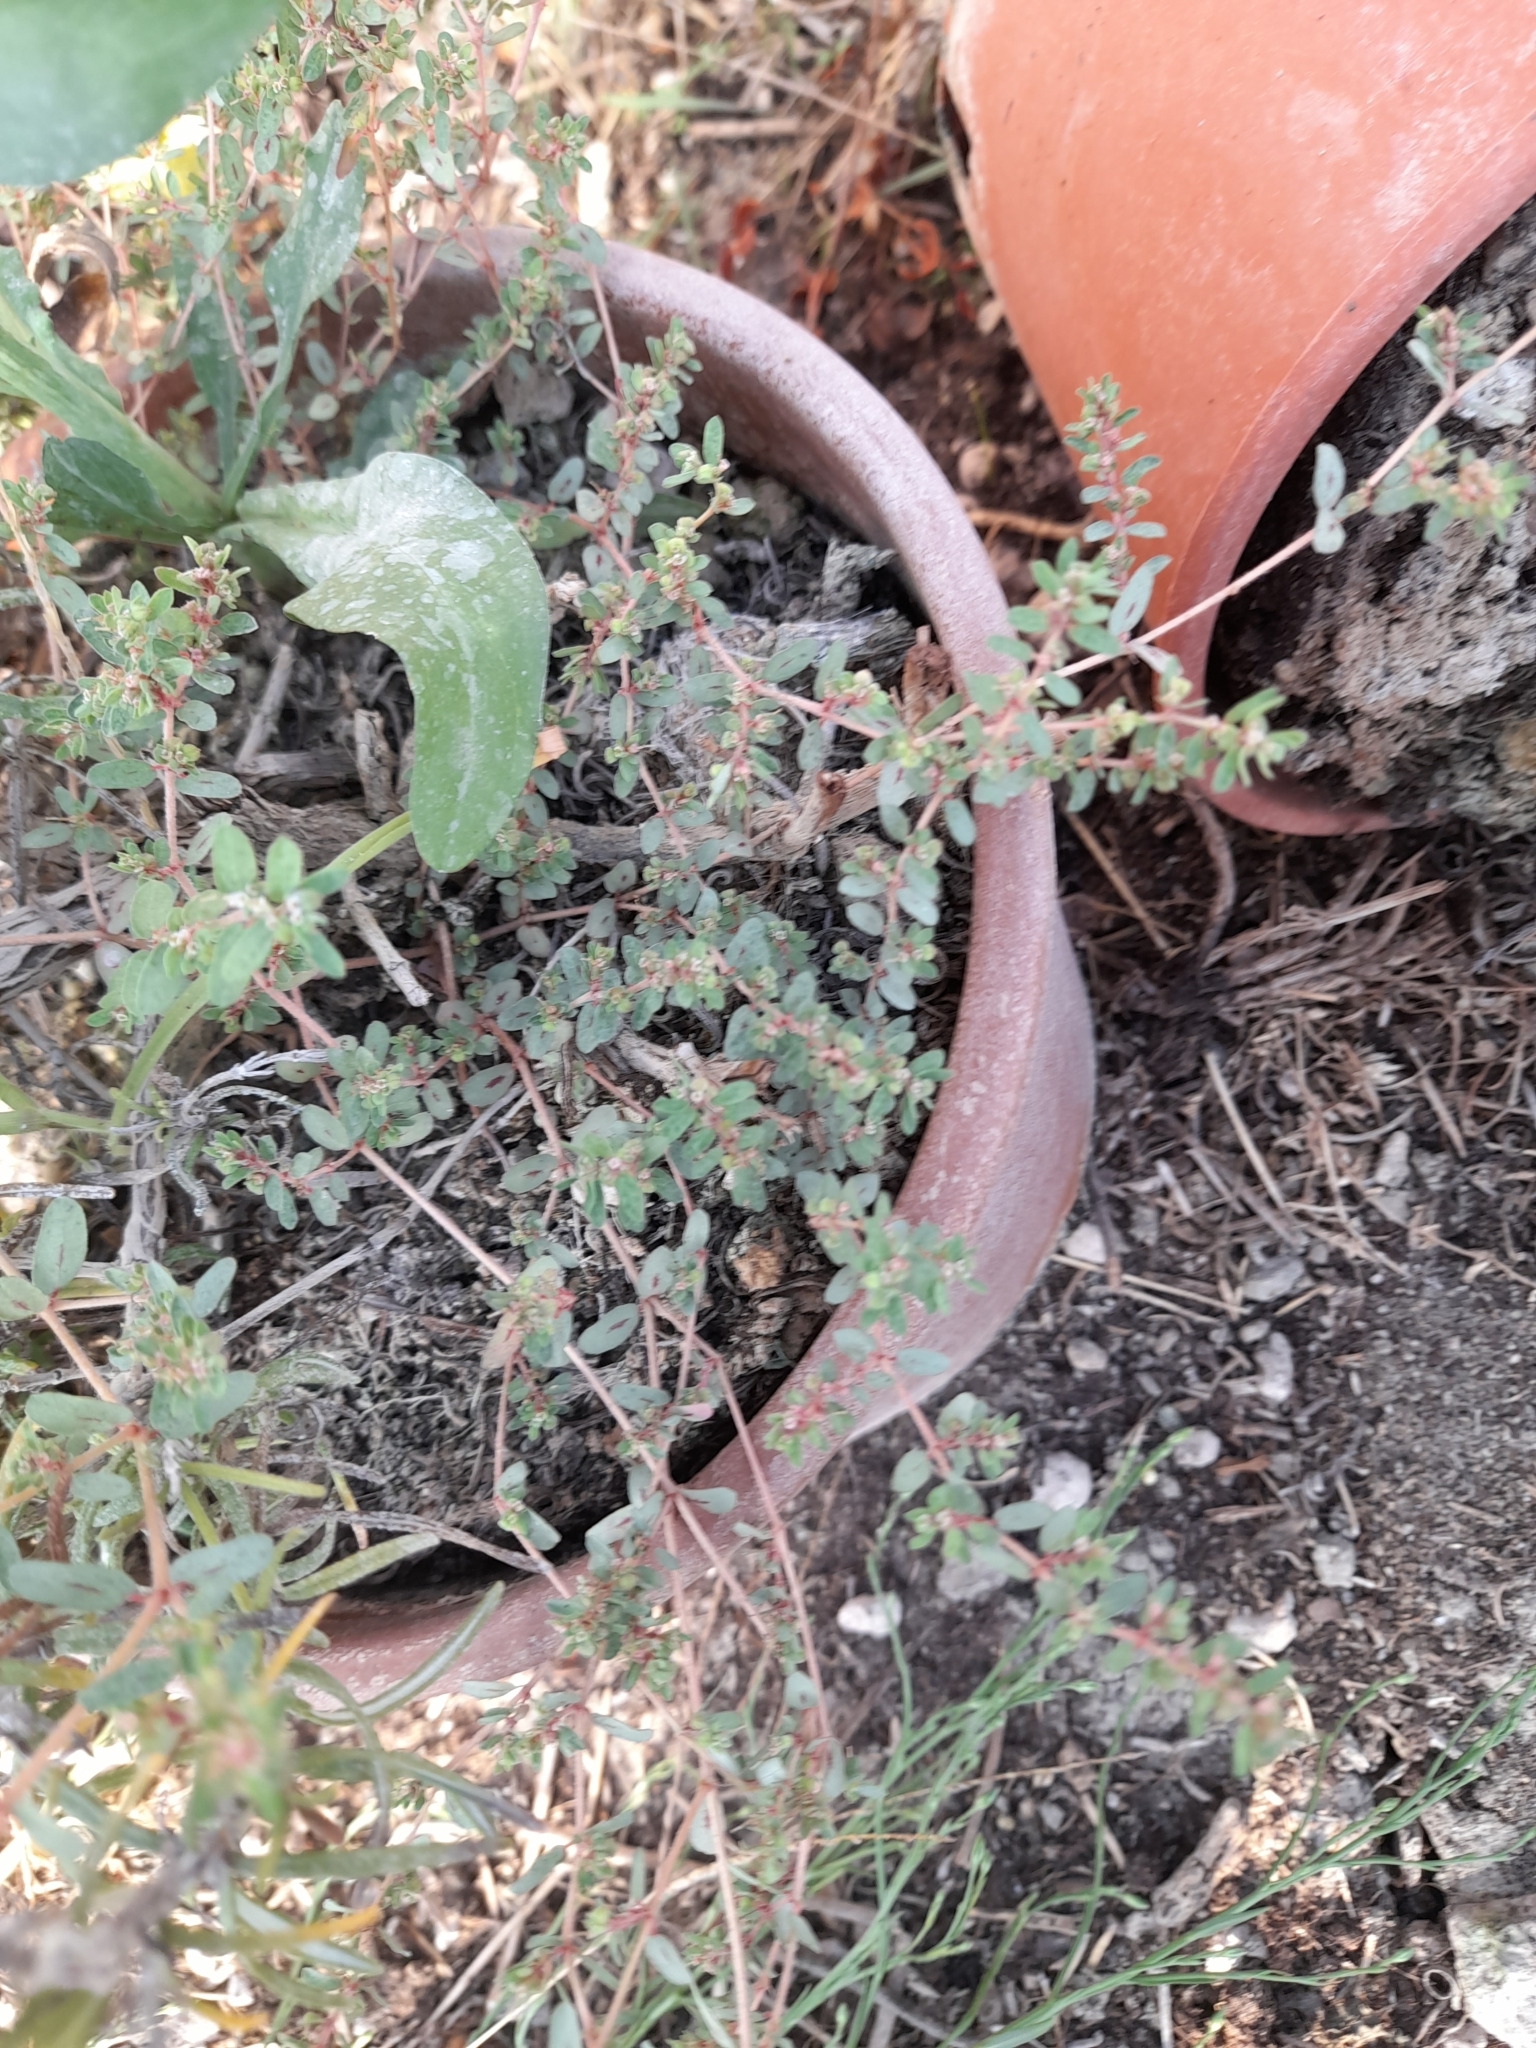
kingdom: Plantae
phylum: Tracheophyta
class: Magnoliopsida
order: Malpighiales
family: Euphorbiaceae
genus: Euphorbia
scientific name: Euphorbia maculata
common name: Spotted spurge
